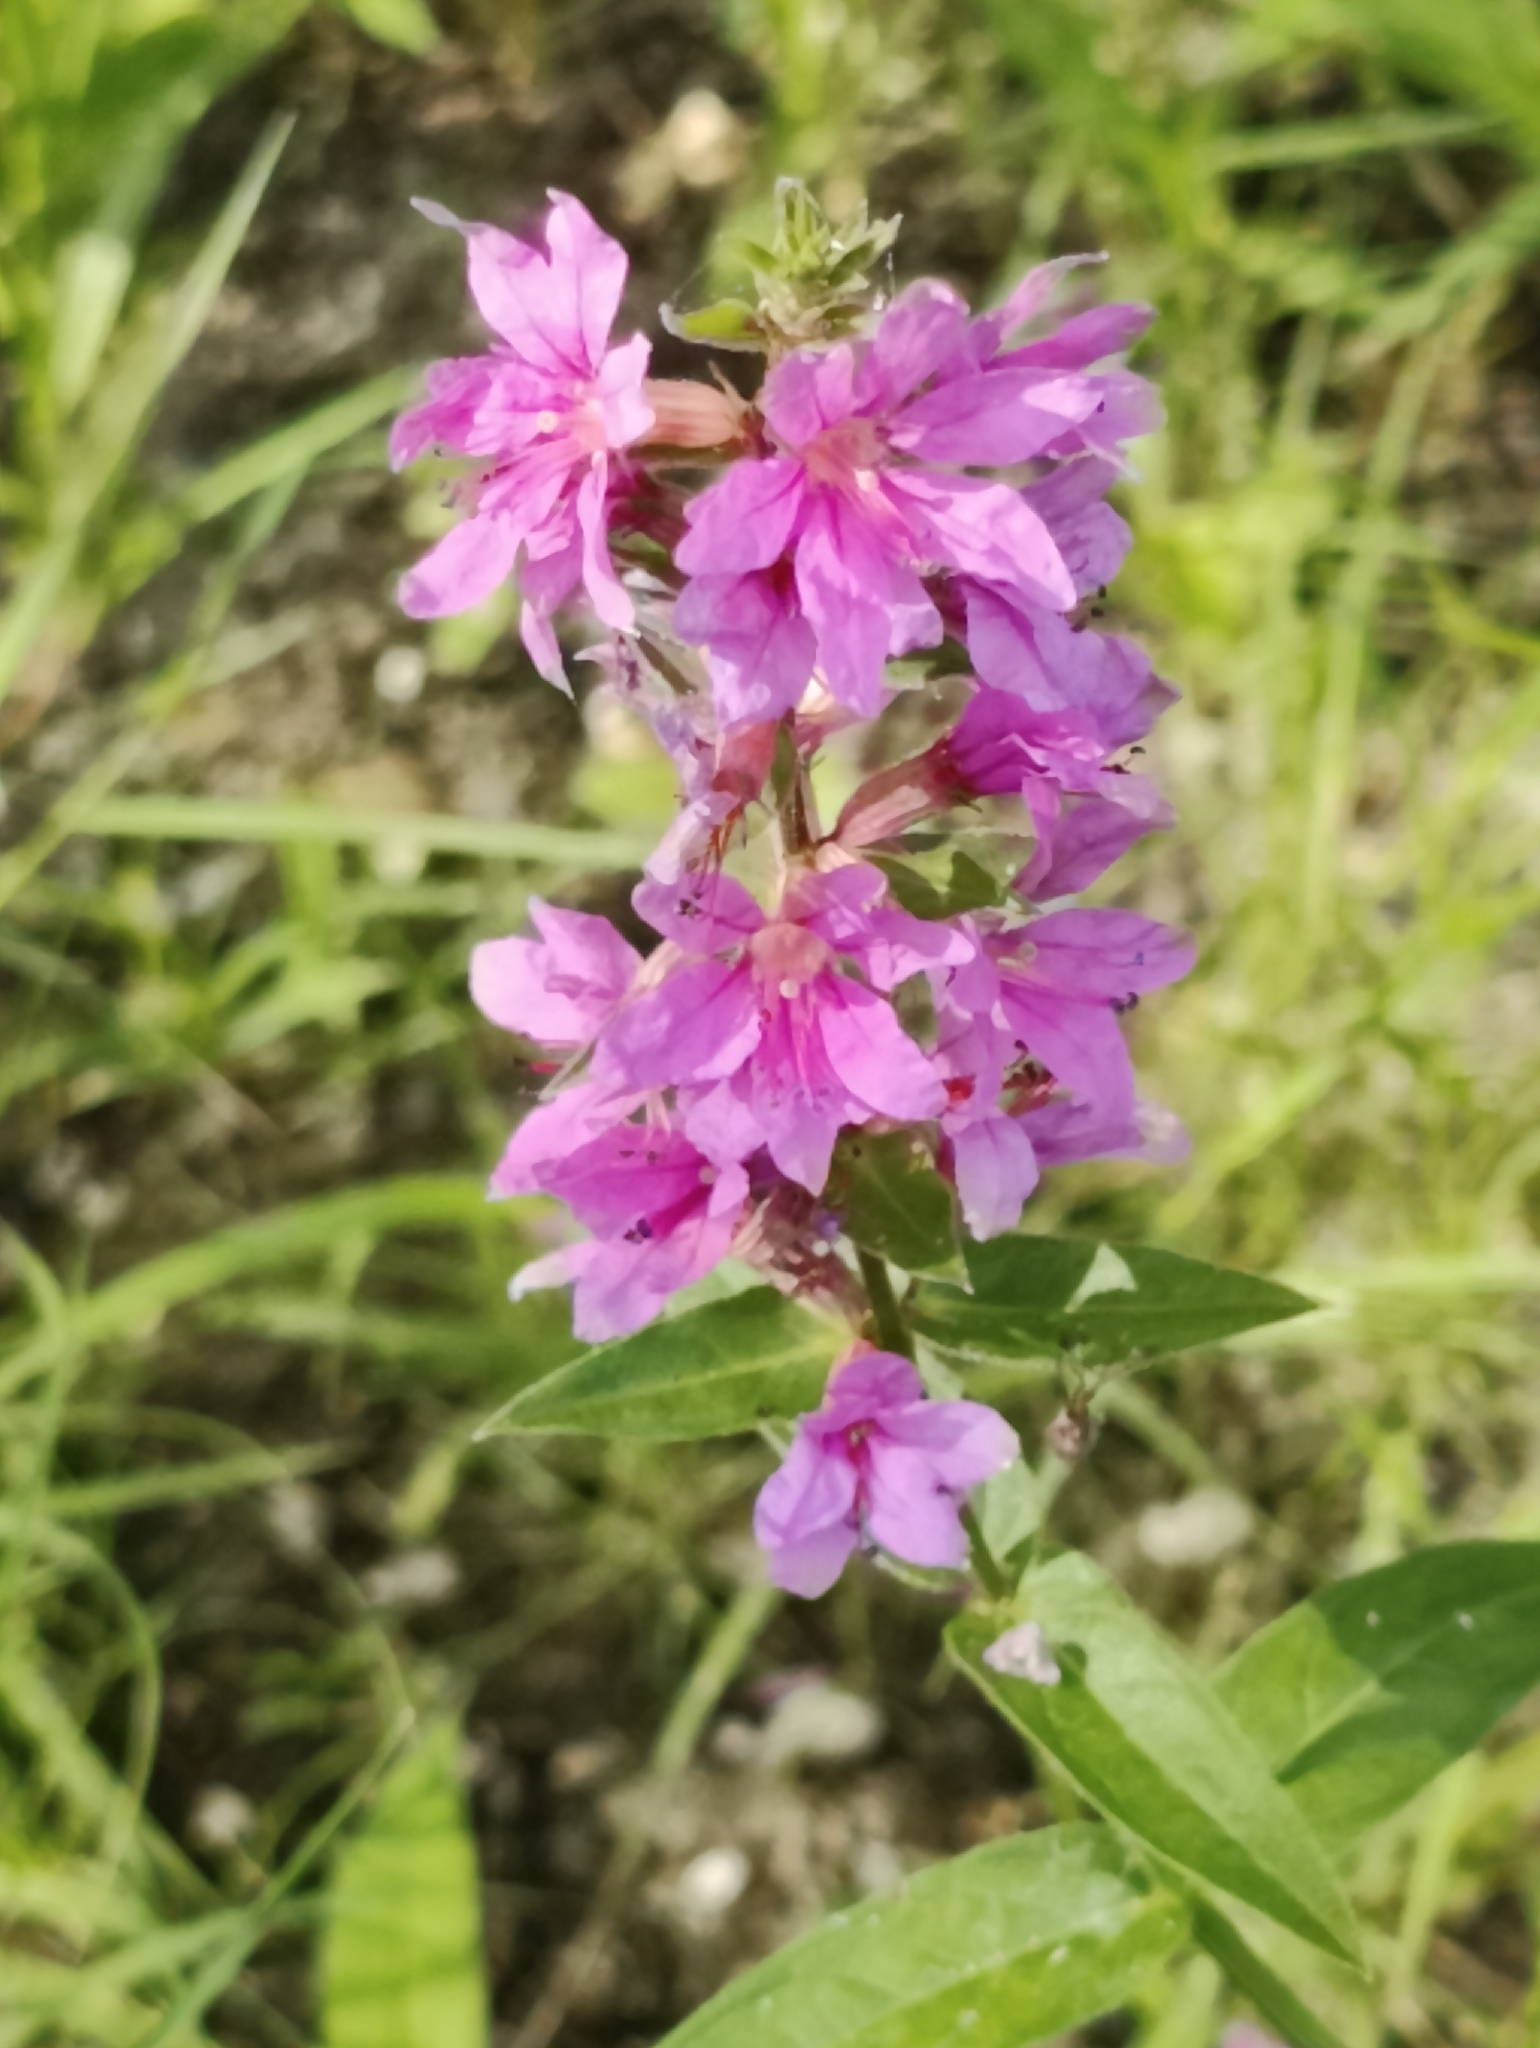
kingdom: Plantae
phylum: Tracheophyta
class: Magnoliopsida
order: Myrtales
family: Lythraceae
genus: Lythrum
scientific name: Lythrum salicaria
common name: Purple loosestrife
